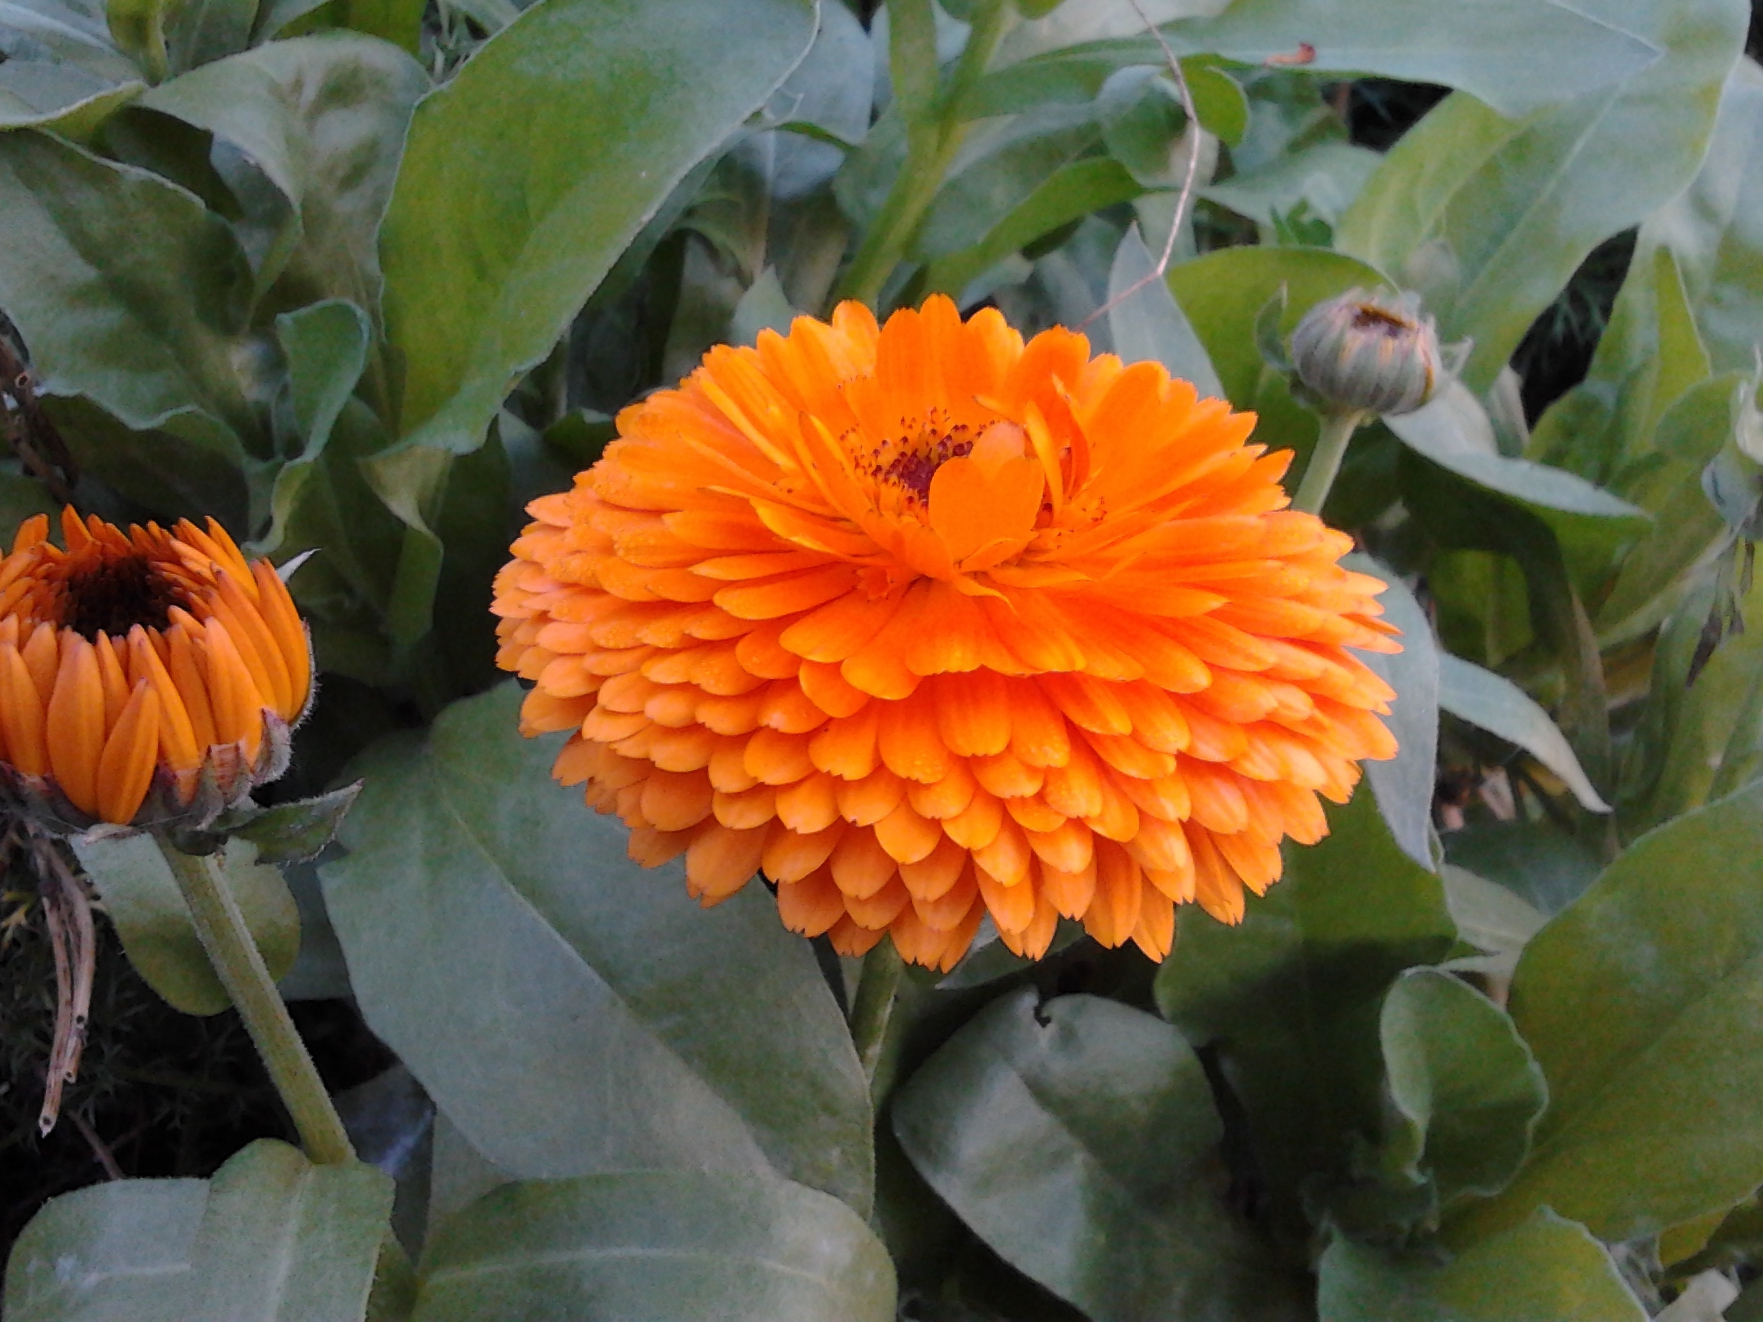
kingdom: Plantae
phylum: Tracheophyta
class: Magnoliopsida
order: Asterales
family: Asteraceae
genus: Calendula
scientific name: Calendula officinalis
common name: Pot marigold
